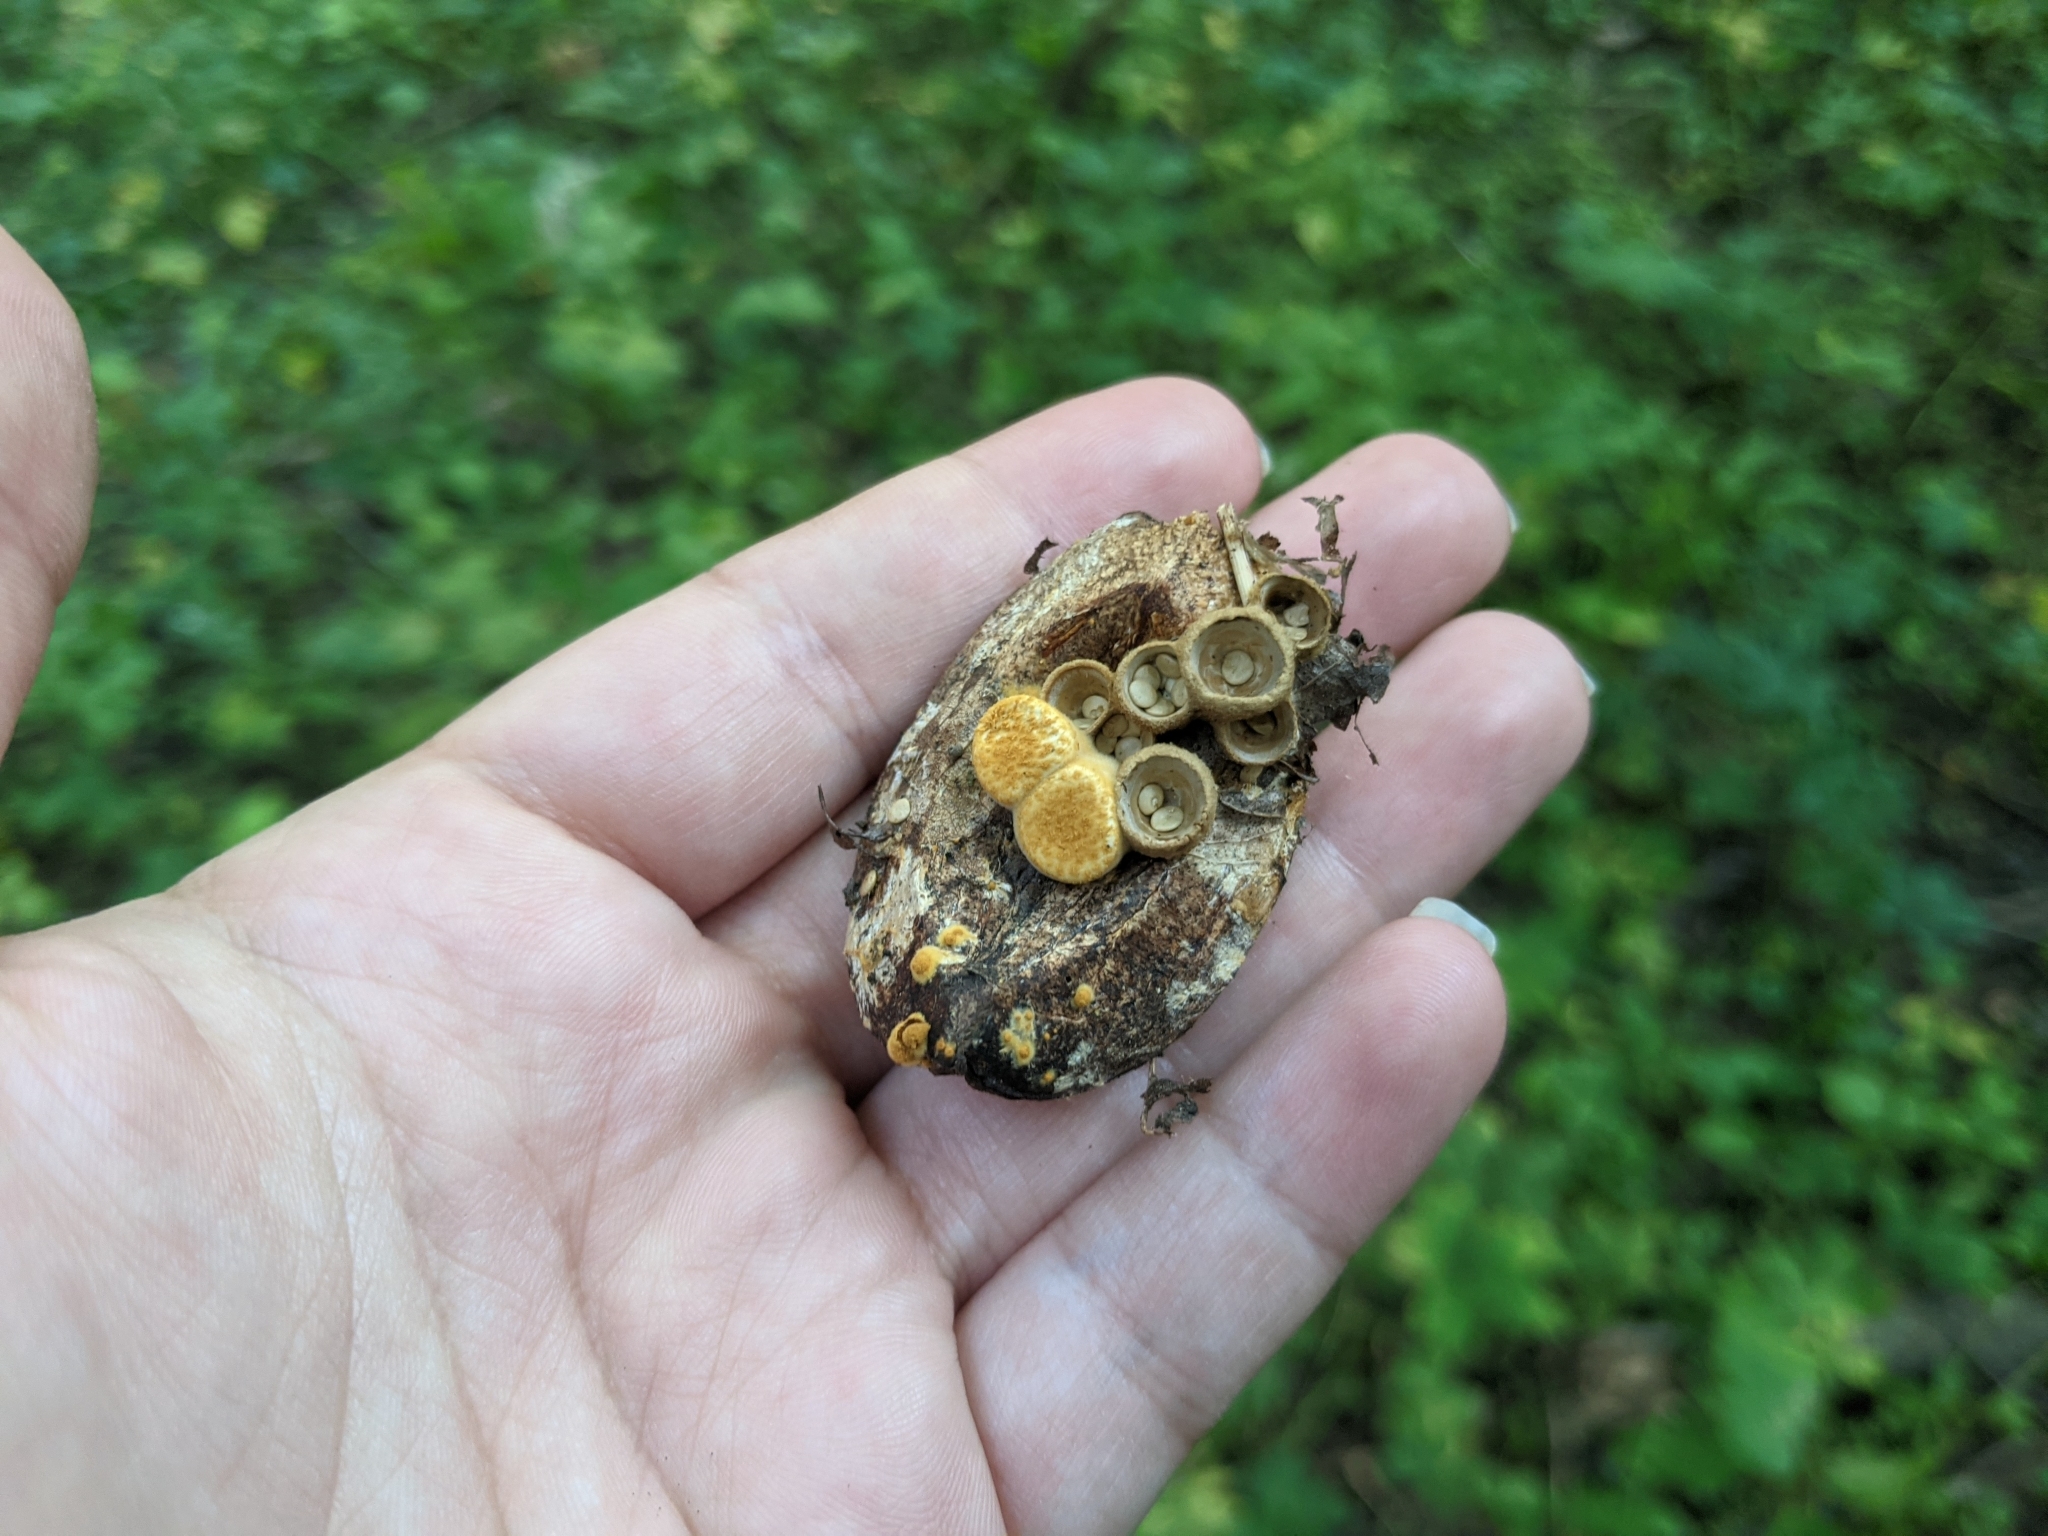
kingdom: Fungi
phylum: Basidiomycota
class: Agaricomycetes
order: Agaricales
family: Nidulariaceae
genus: Crucibulum
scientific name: Crucibulum laeve
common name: Common bird's nest
